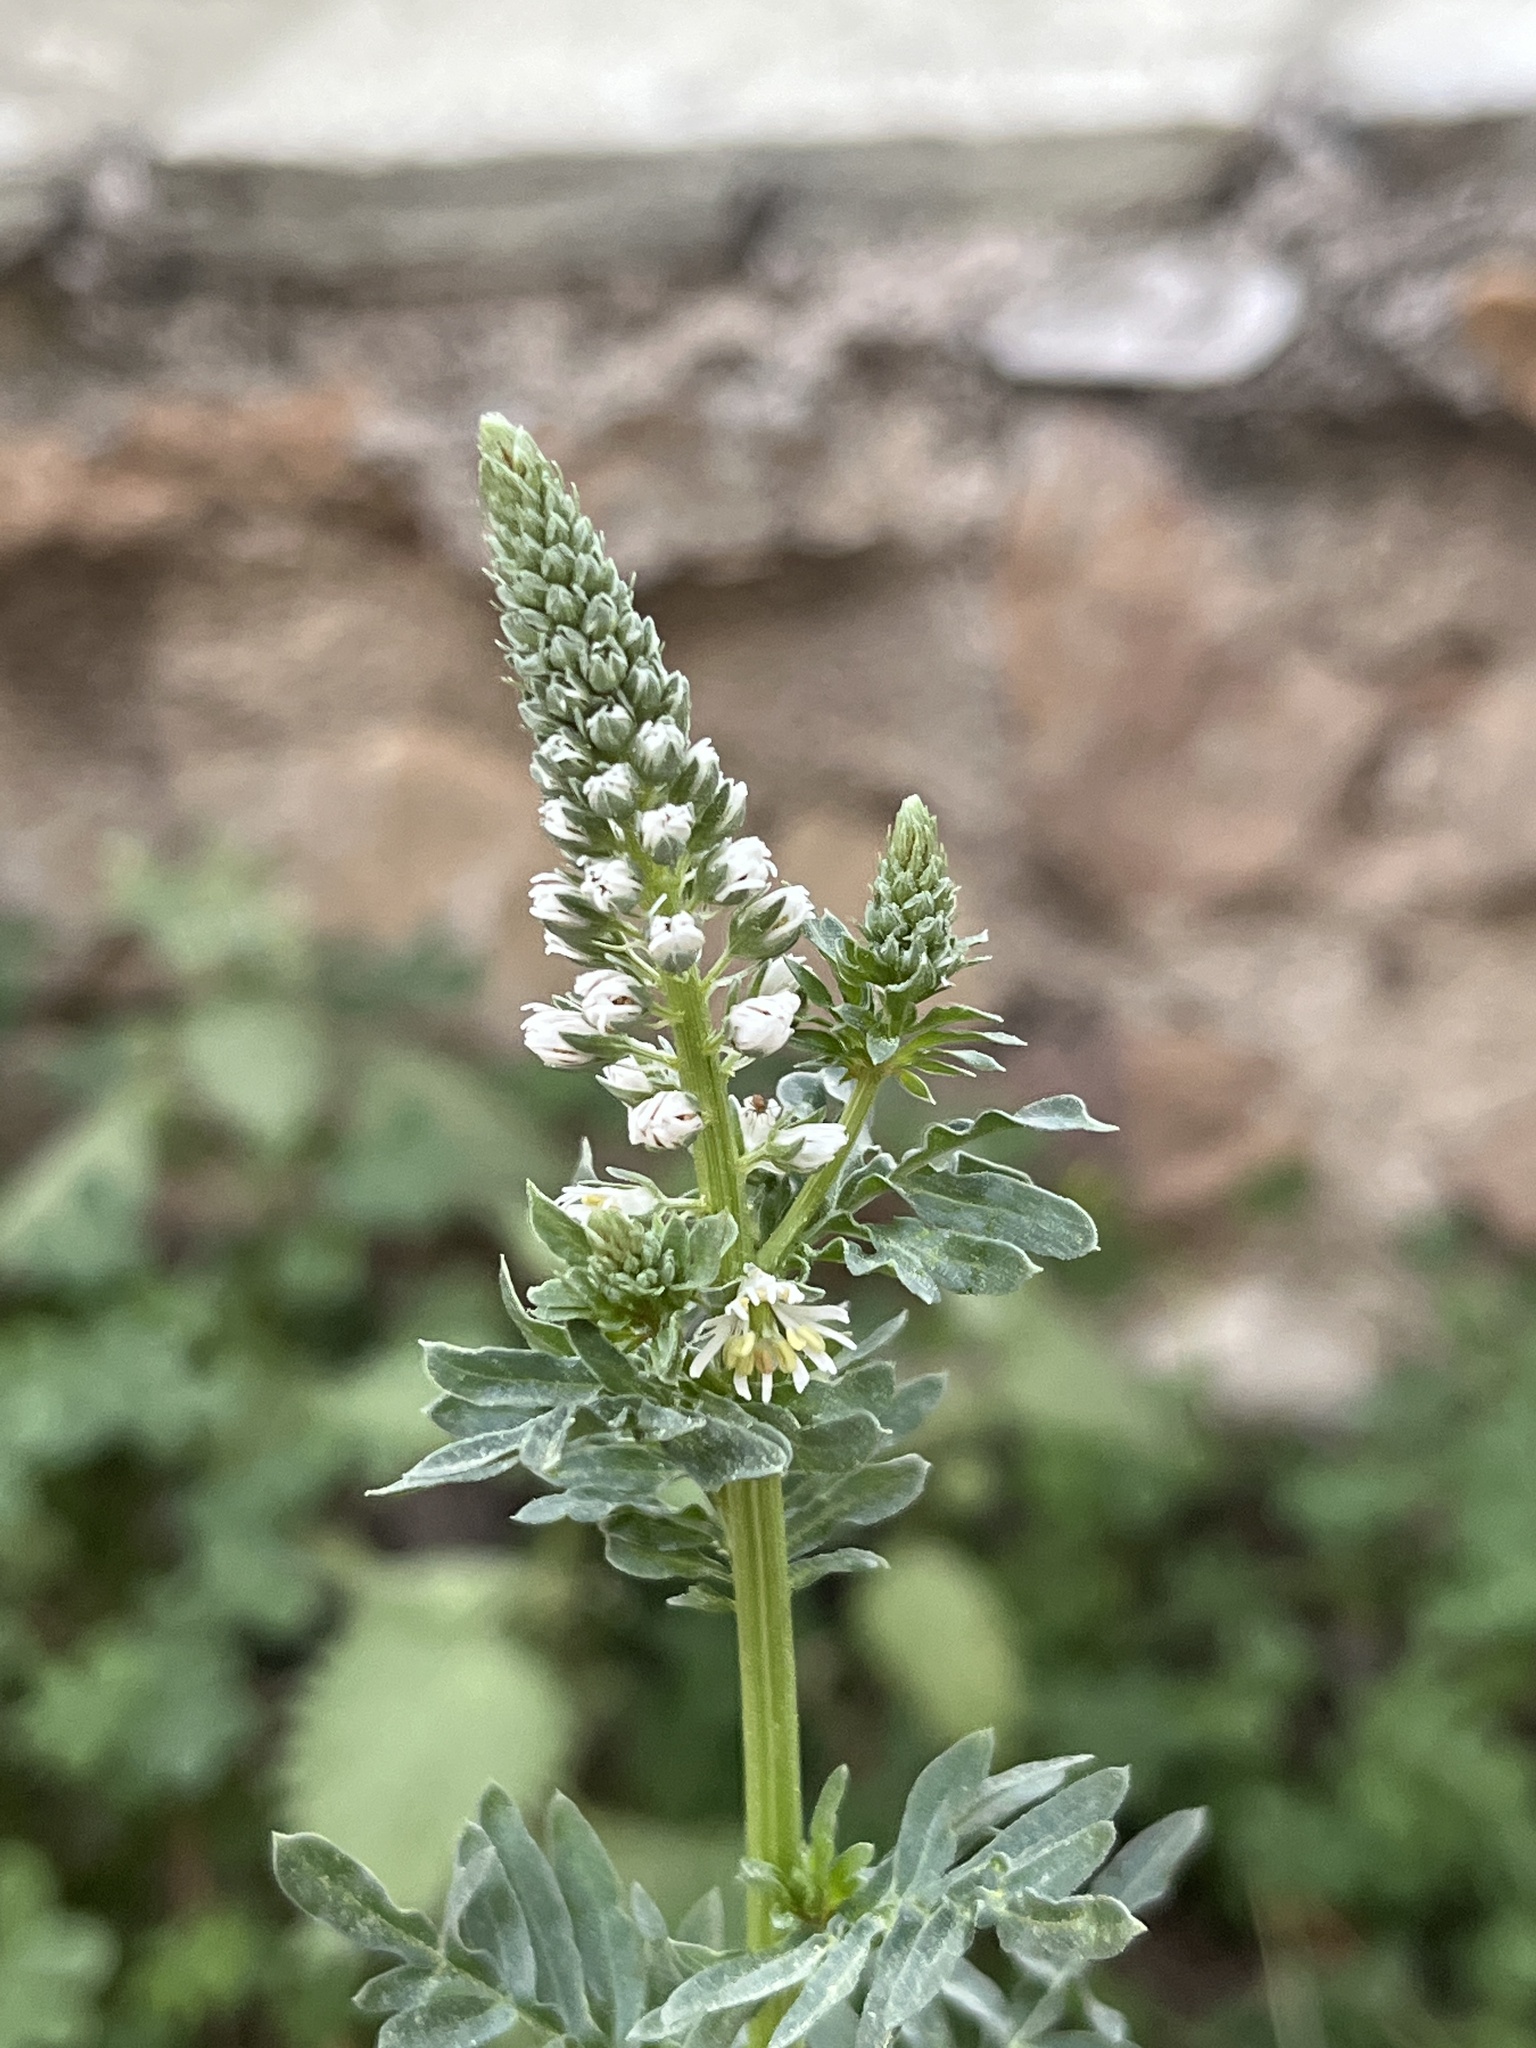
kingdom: Plantae
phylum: Tracheophyta
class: Magnoliopsida
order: Brassicales
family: Resedaceae
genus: Reseda
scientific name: Reseda alba
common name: White mignonette
